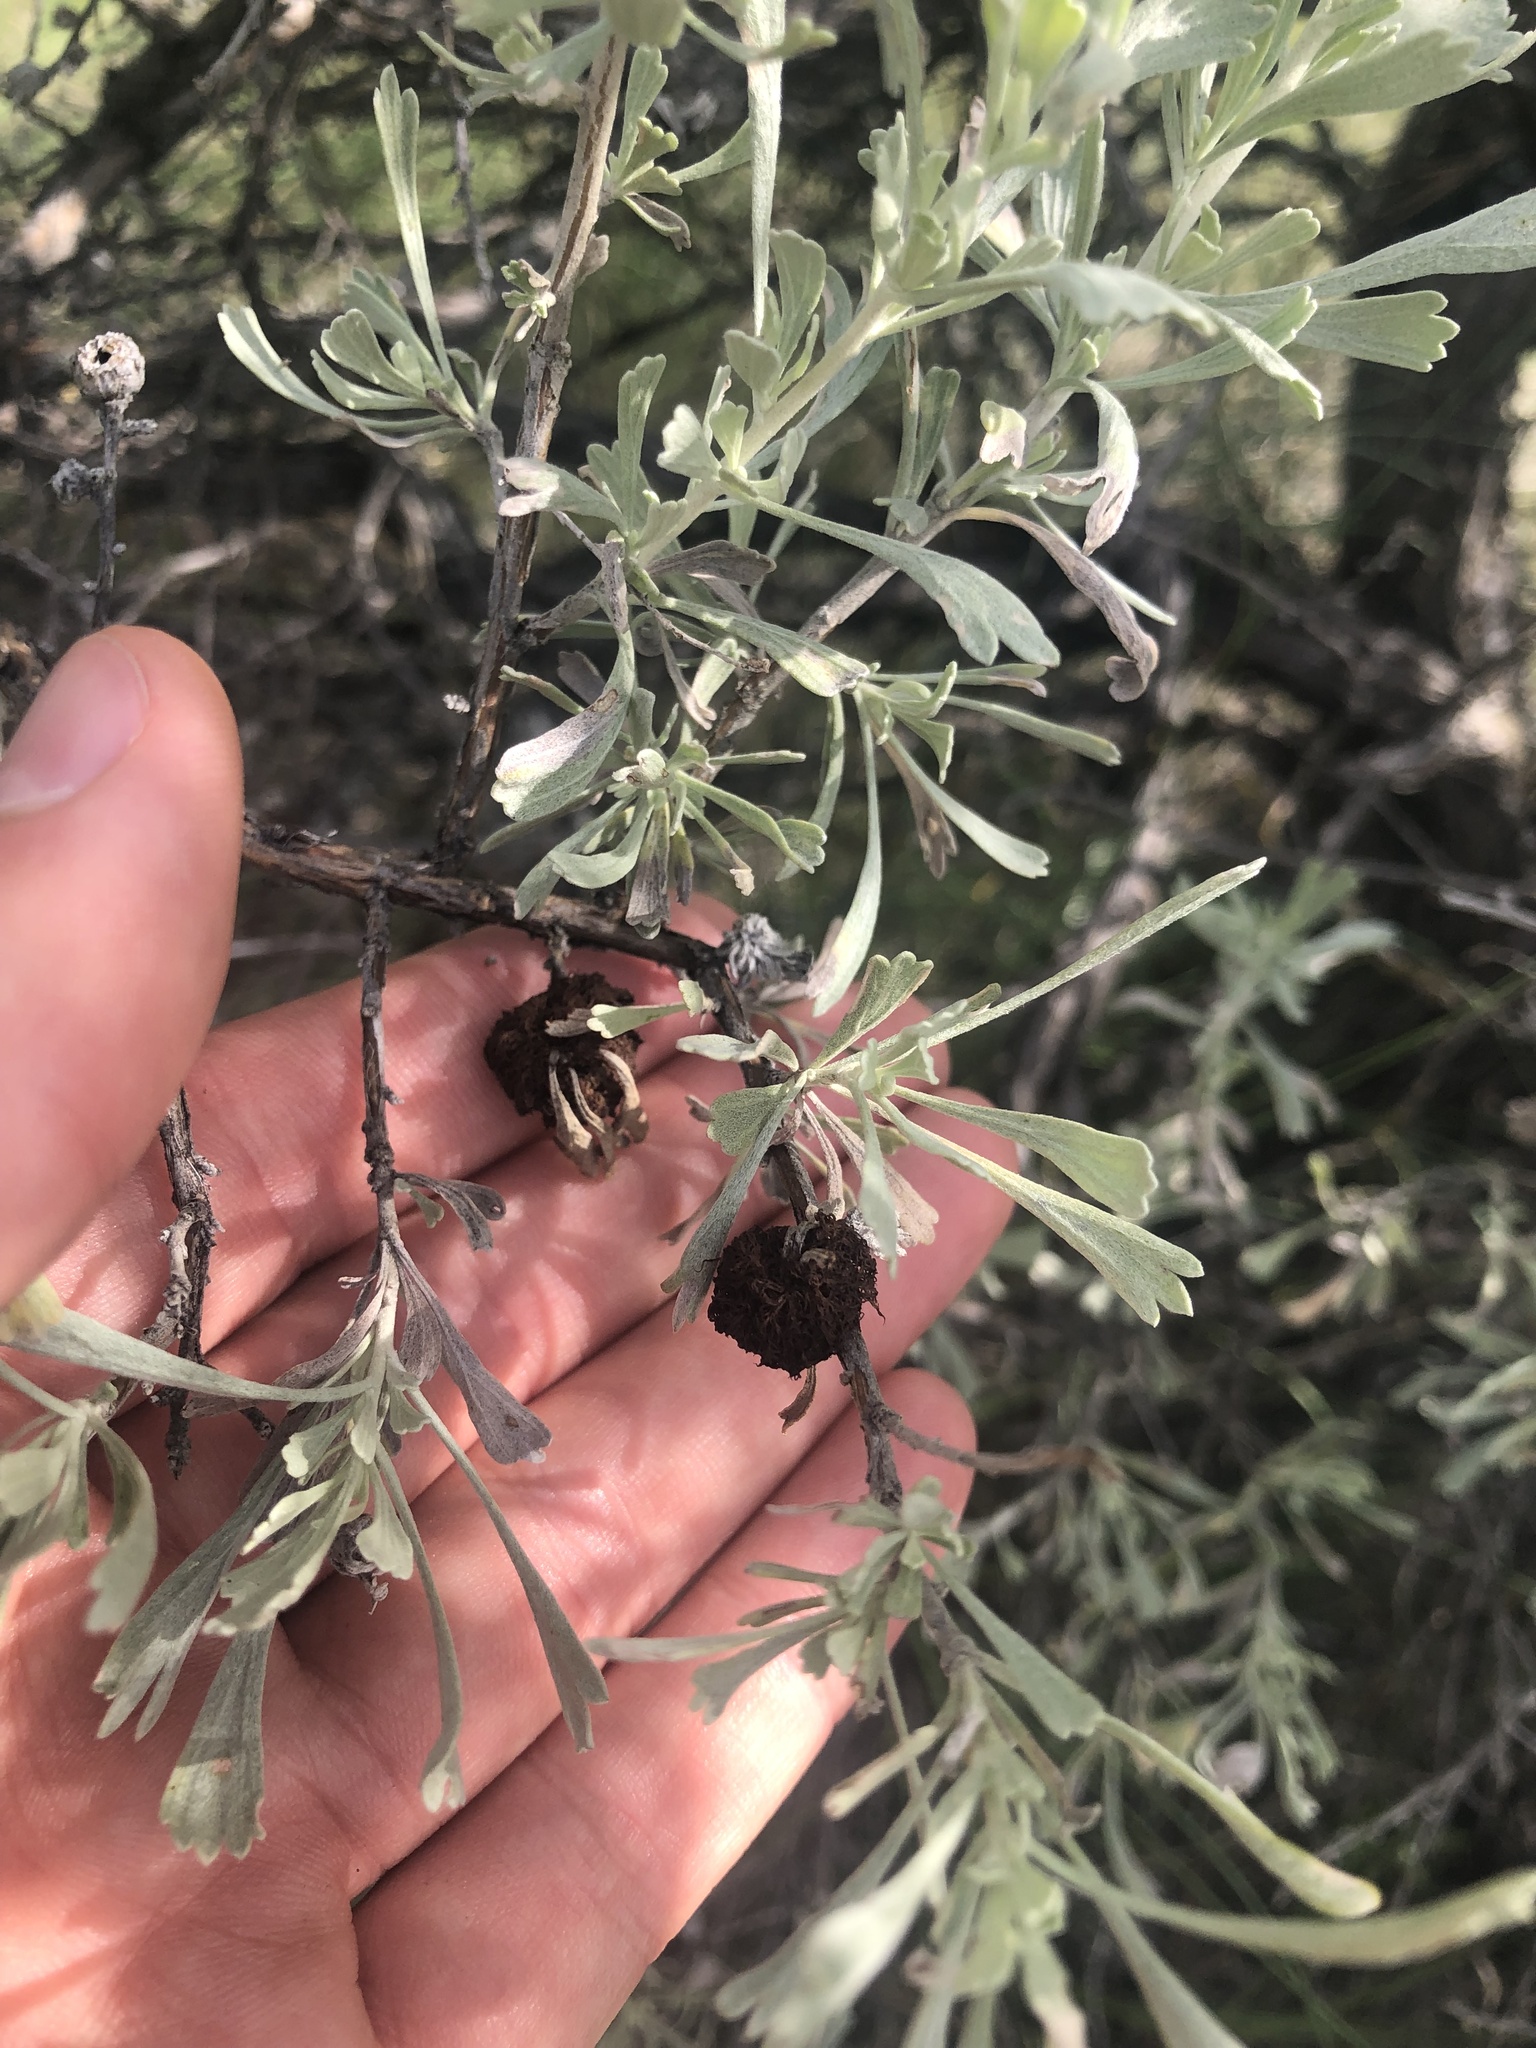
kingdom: Animalia
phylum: Arthropoda
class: Insecta
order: Diptera
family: Cecidomyiidae
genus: Rhopalomyia
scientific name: Rhopalomyia medusa
